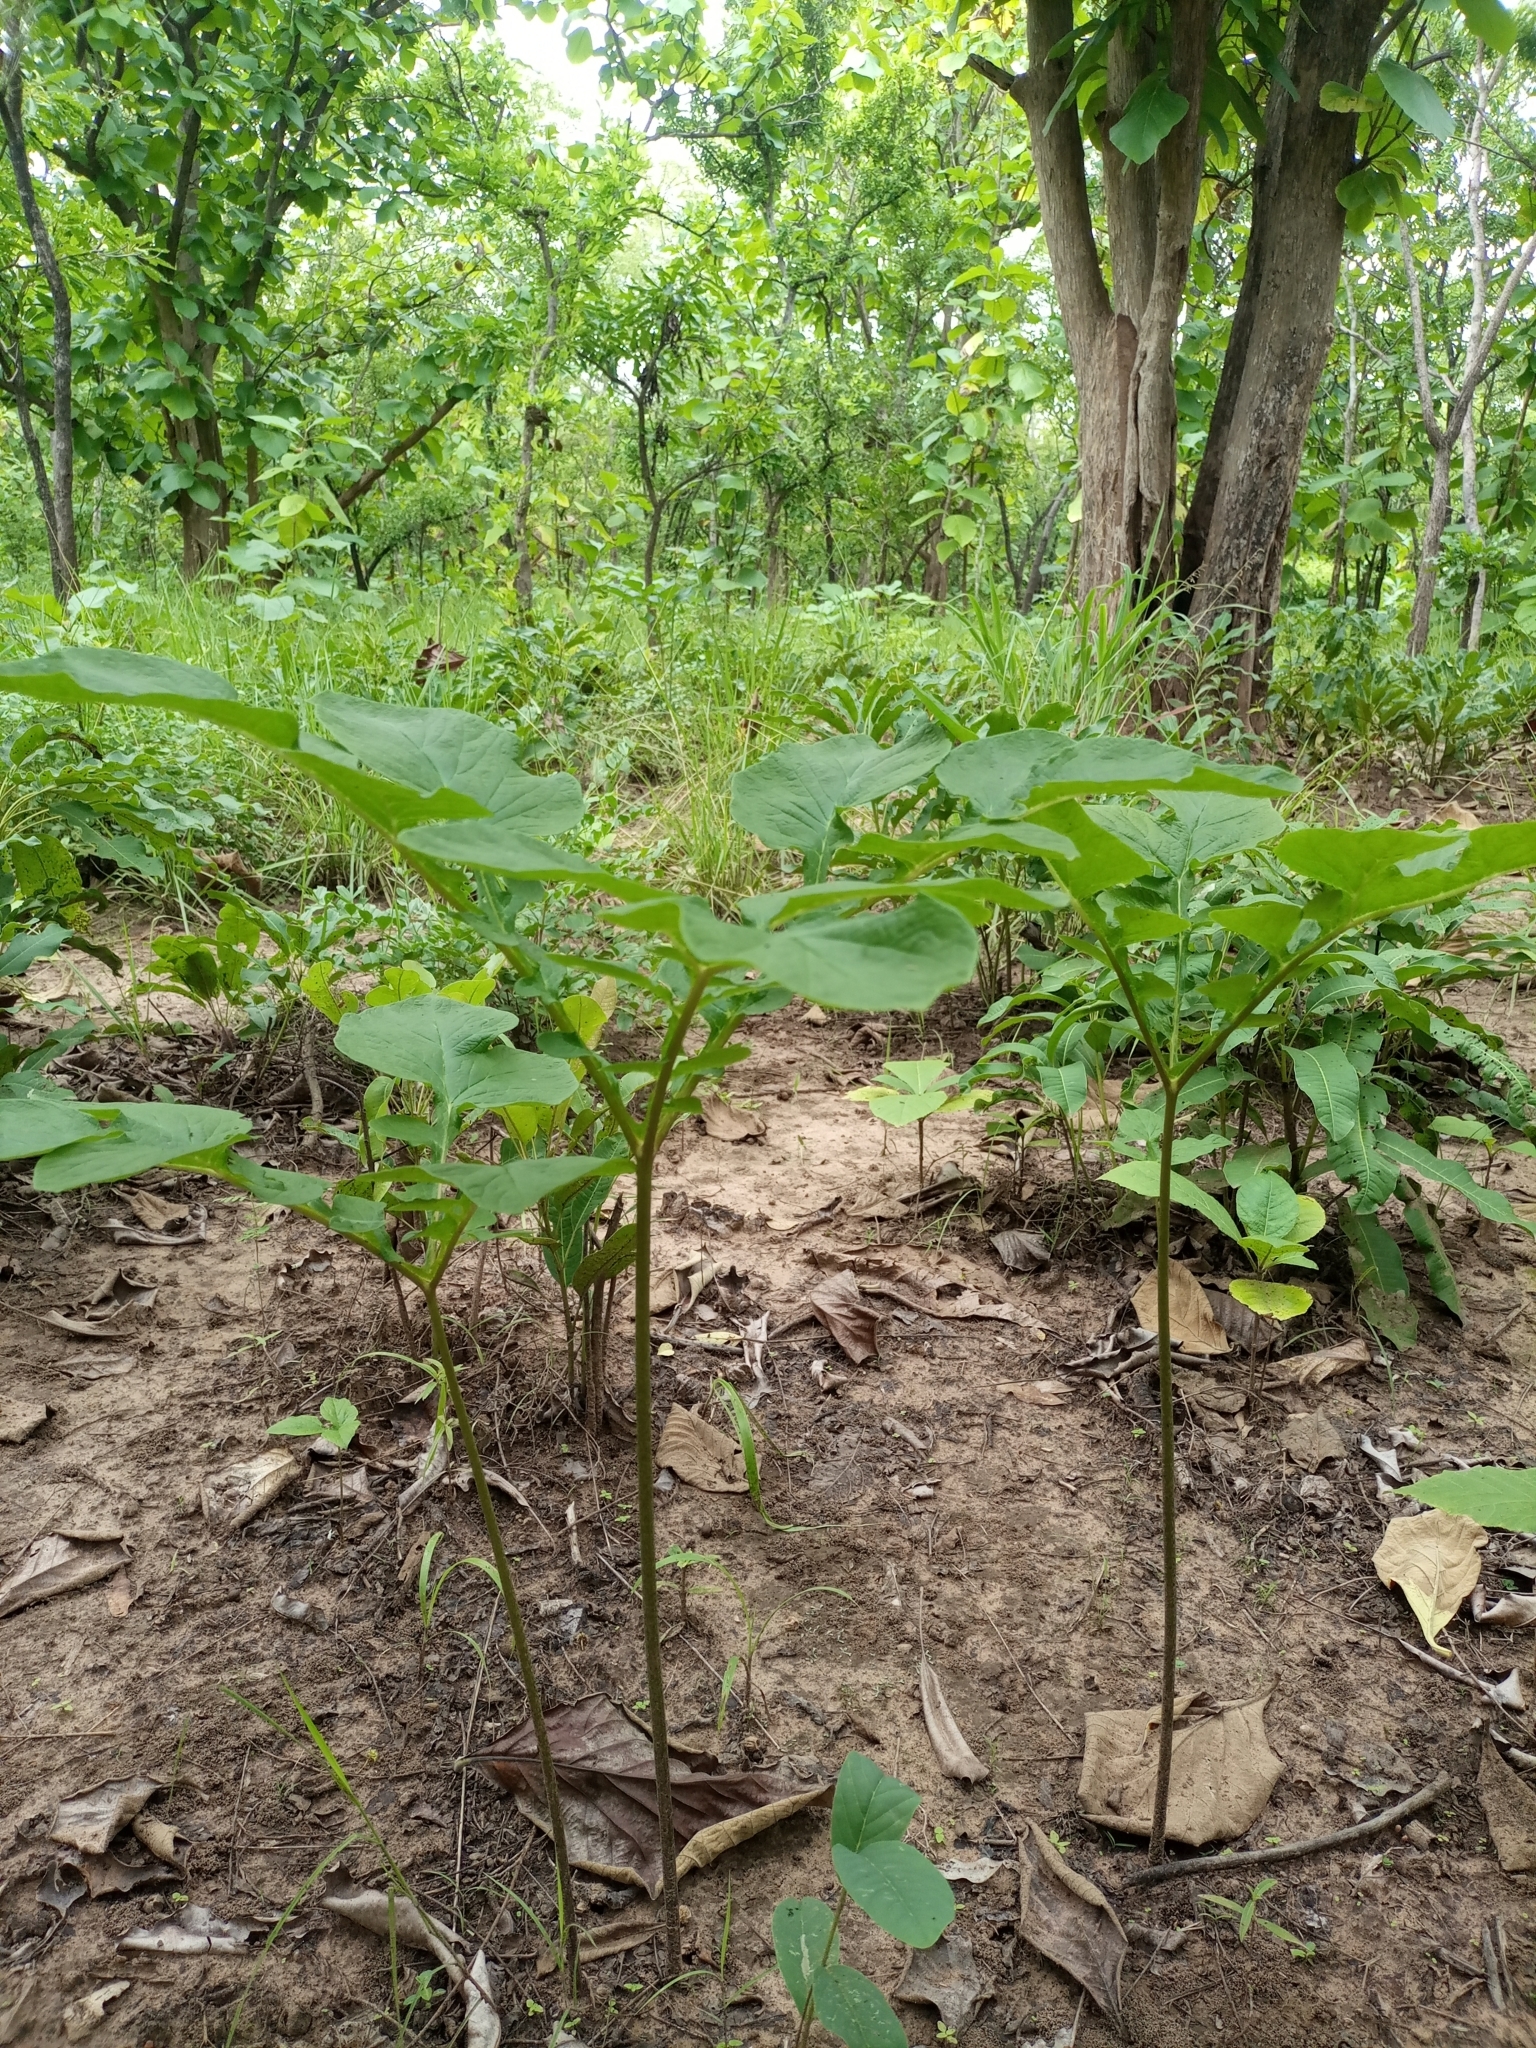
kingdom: Plantae
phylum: Tracheophyta
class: Liliopsida
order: Dioscoreales
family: Dioscoreaceae
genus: Tacca
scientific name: Tacca leontopetaloides
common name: Arrowroot
